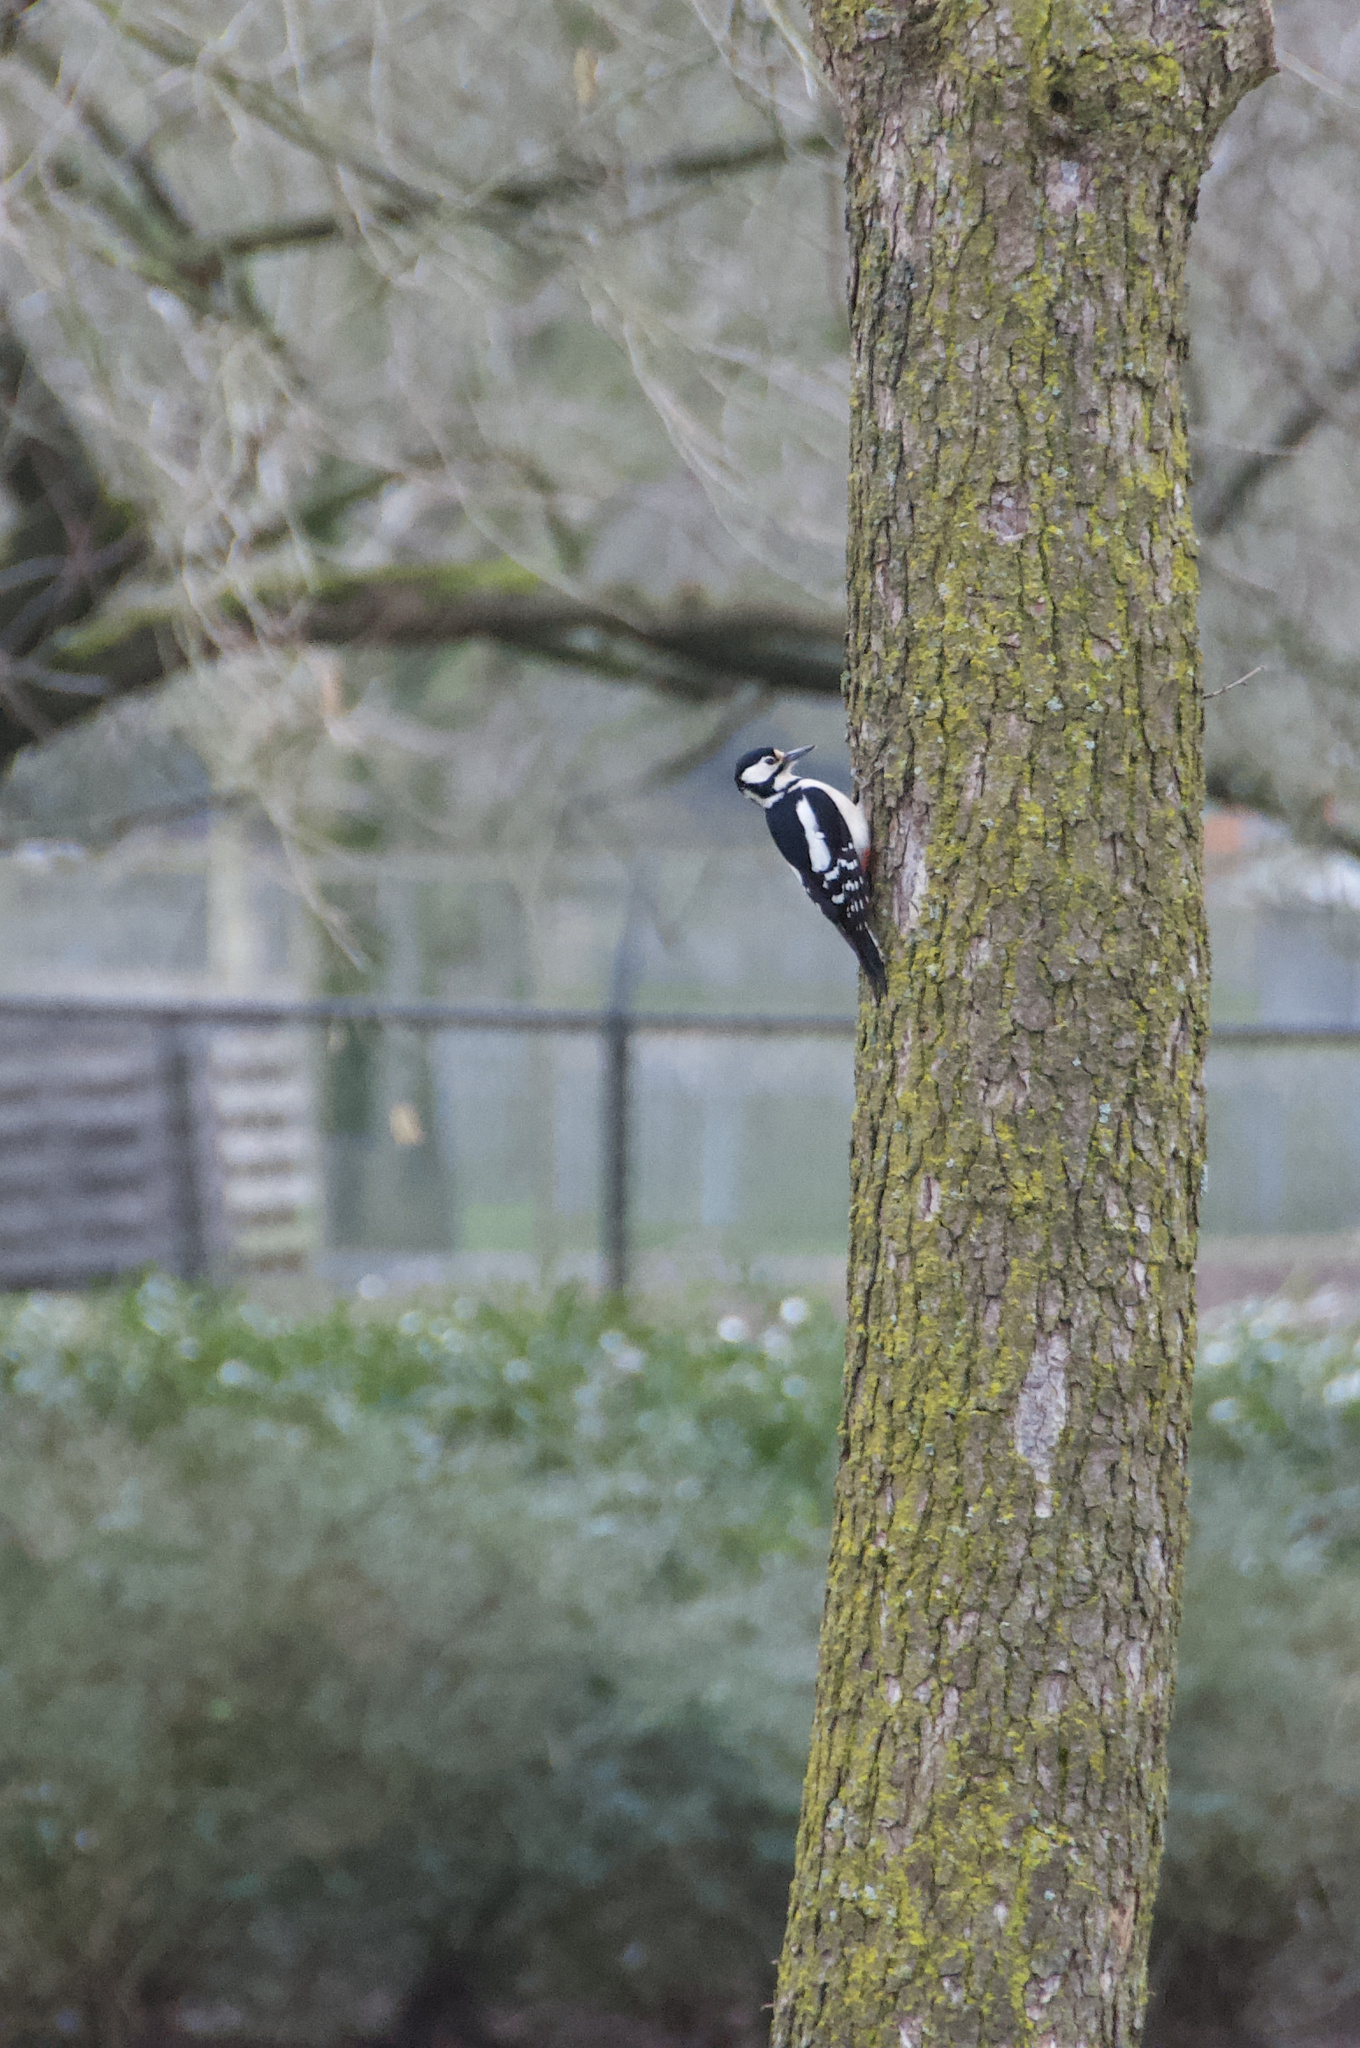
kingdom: Animalia
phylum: Chordata
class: Aves
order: Piciformes
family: Picidae
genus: Dendrocopos
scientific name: Dendrocopos major
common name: Great spotted woodpecker
